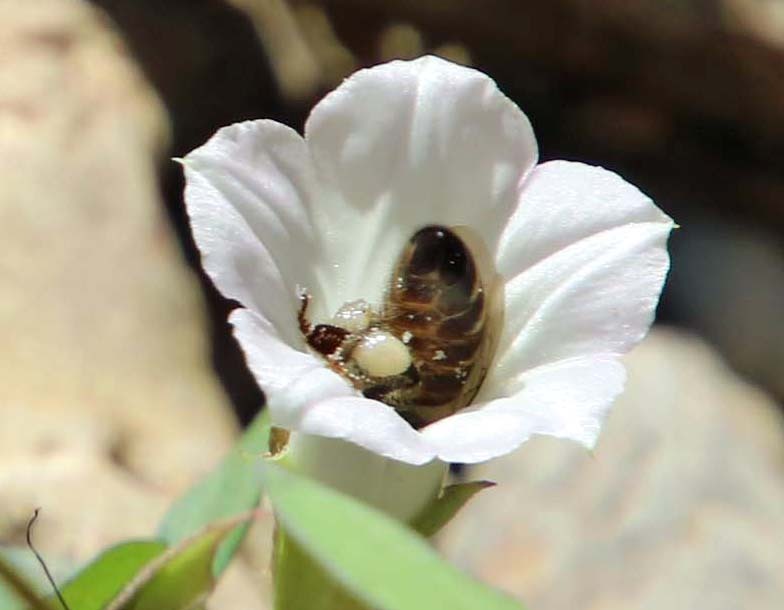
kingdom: Animalia
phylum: Arthropoda
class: Insecta
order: Hymenoptera
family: Apidae
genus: Apis
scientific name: Apis mellifera
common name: Honey bee
